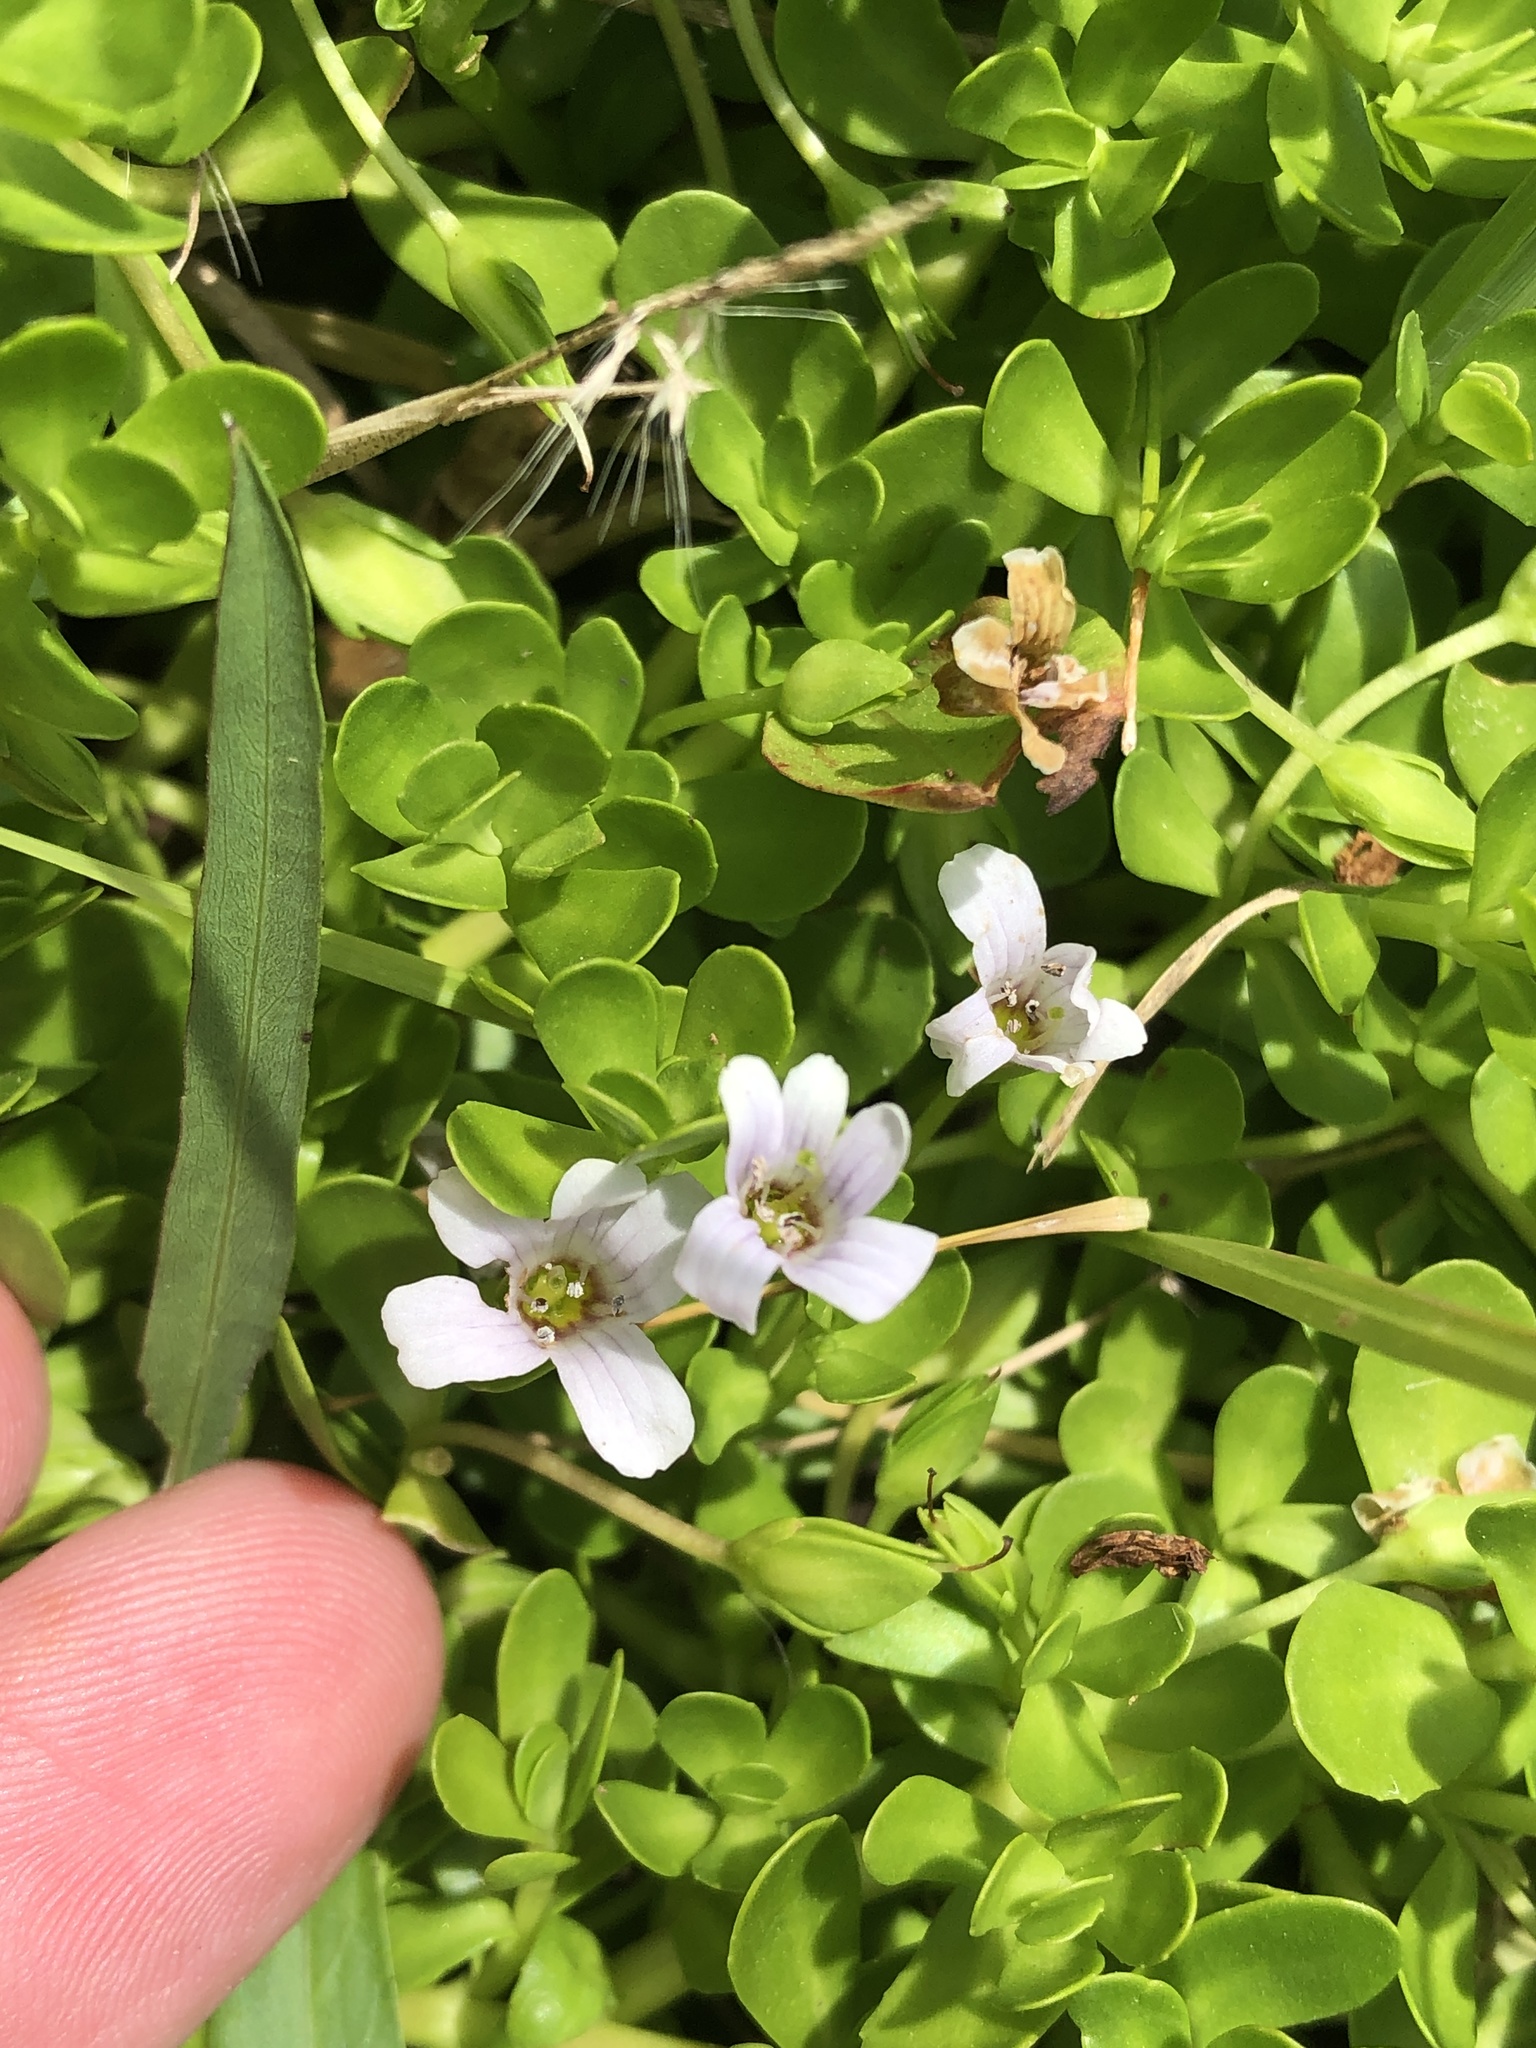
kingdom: Plantae
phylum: Tracheophyta
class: Magnoliopsida
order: Lamiales
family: Plantaginaceae
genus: Bacopa
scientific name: Bacopa monnieri
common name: Indian-pennywort
